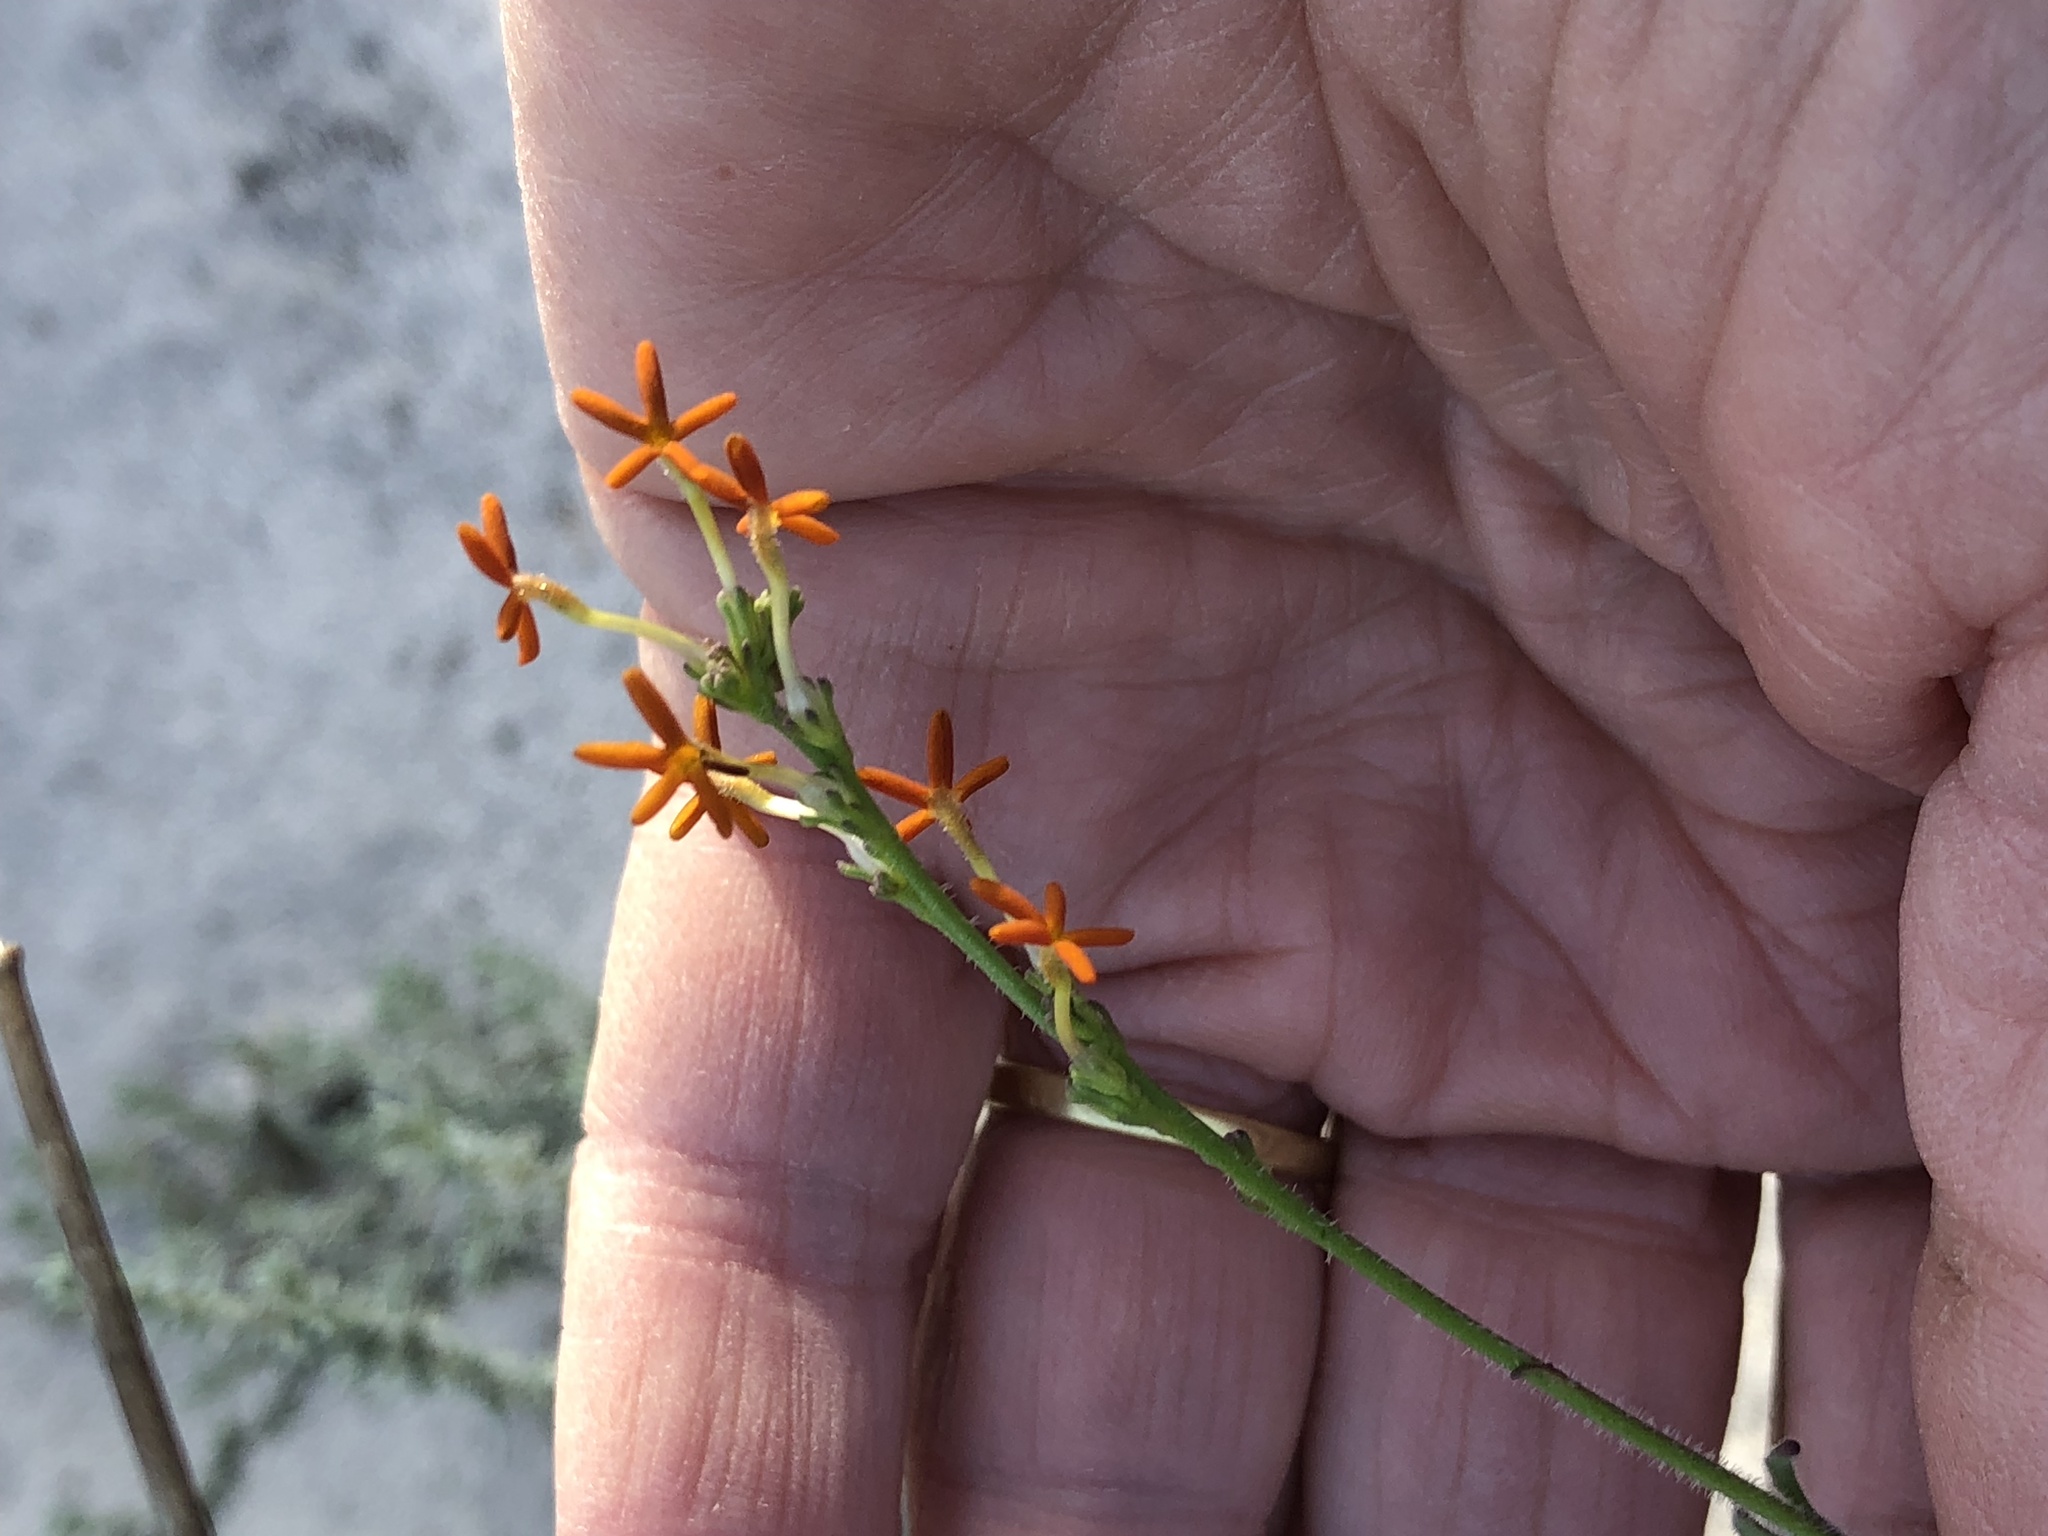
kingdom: Plantae
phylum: Tracheophyta
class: Magnoliopsida
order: Lamiales
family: Scrophulariaceae
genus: Manulea
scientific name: Manulea rubra
